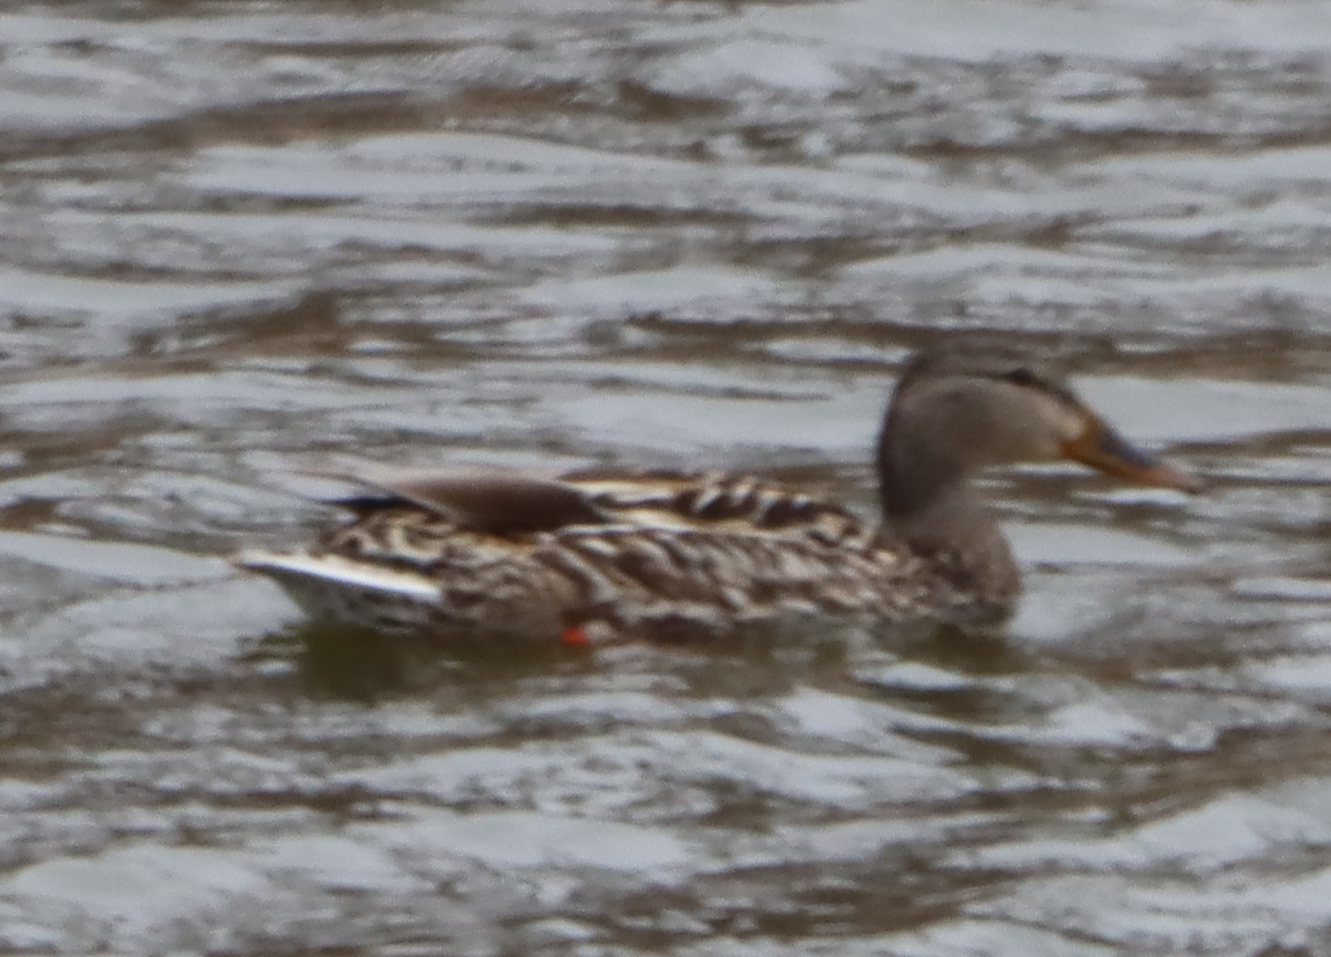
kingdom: Animalia
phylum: Chordata
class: Aves
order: Anseriformes
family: Anatidae
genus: Anas
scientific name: Anas platyrhynchos
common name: Mallard
